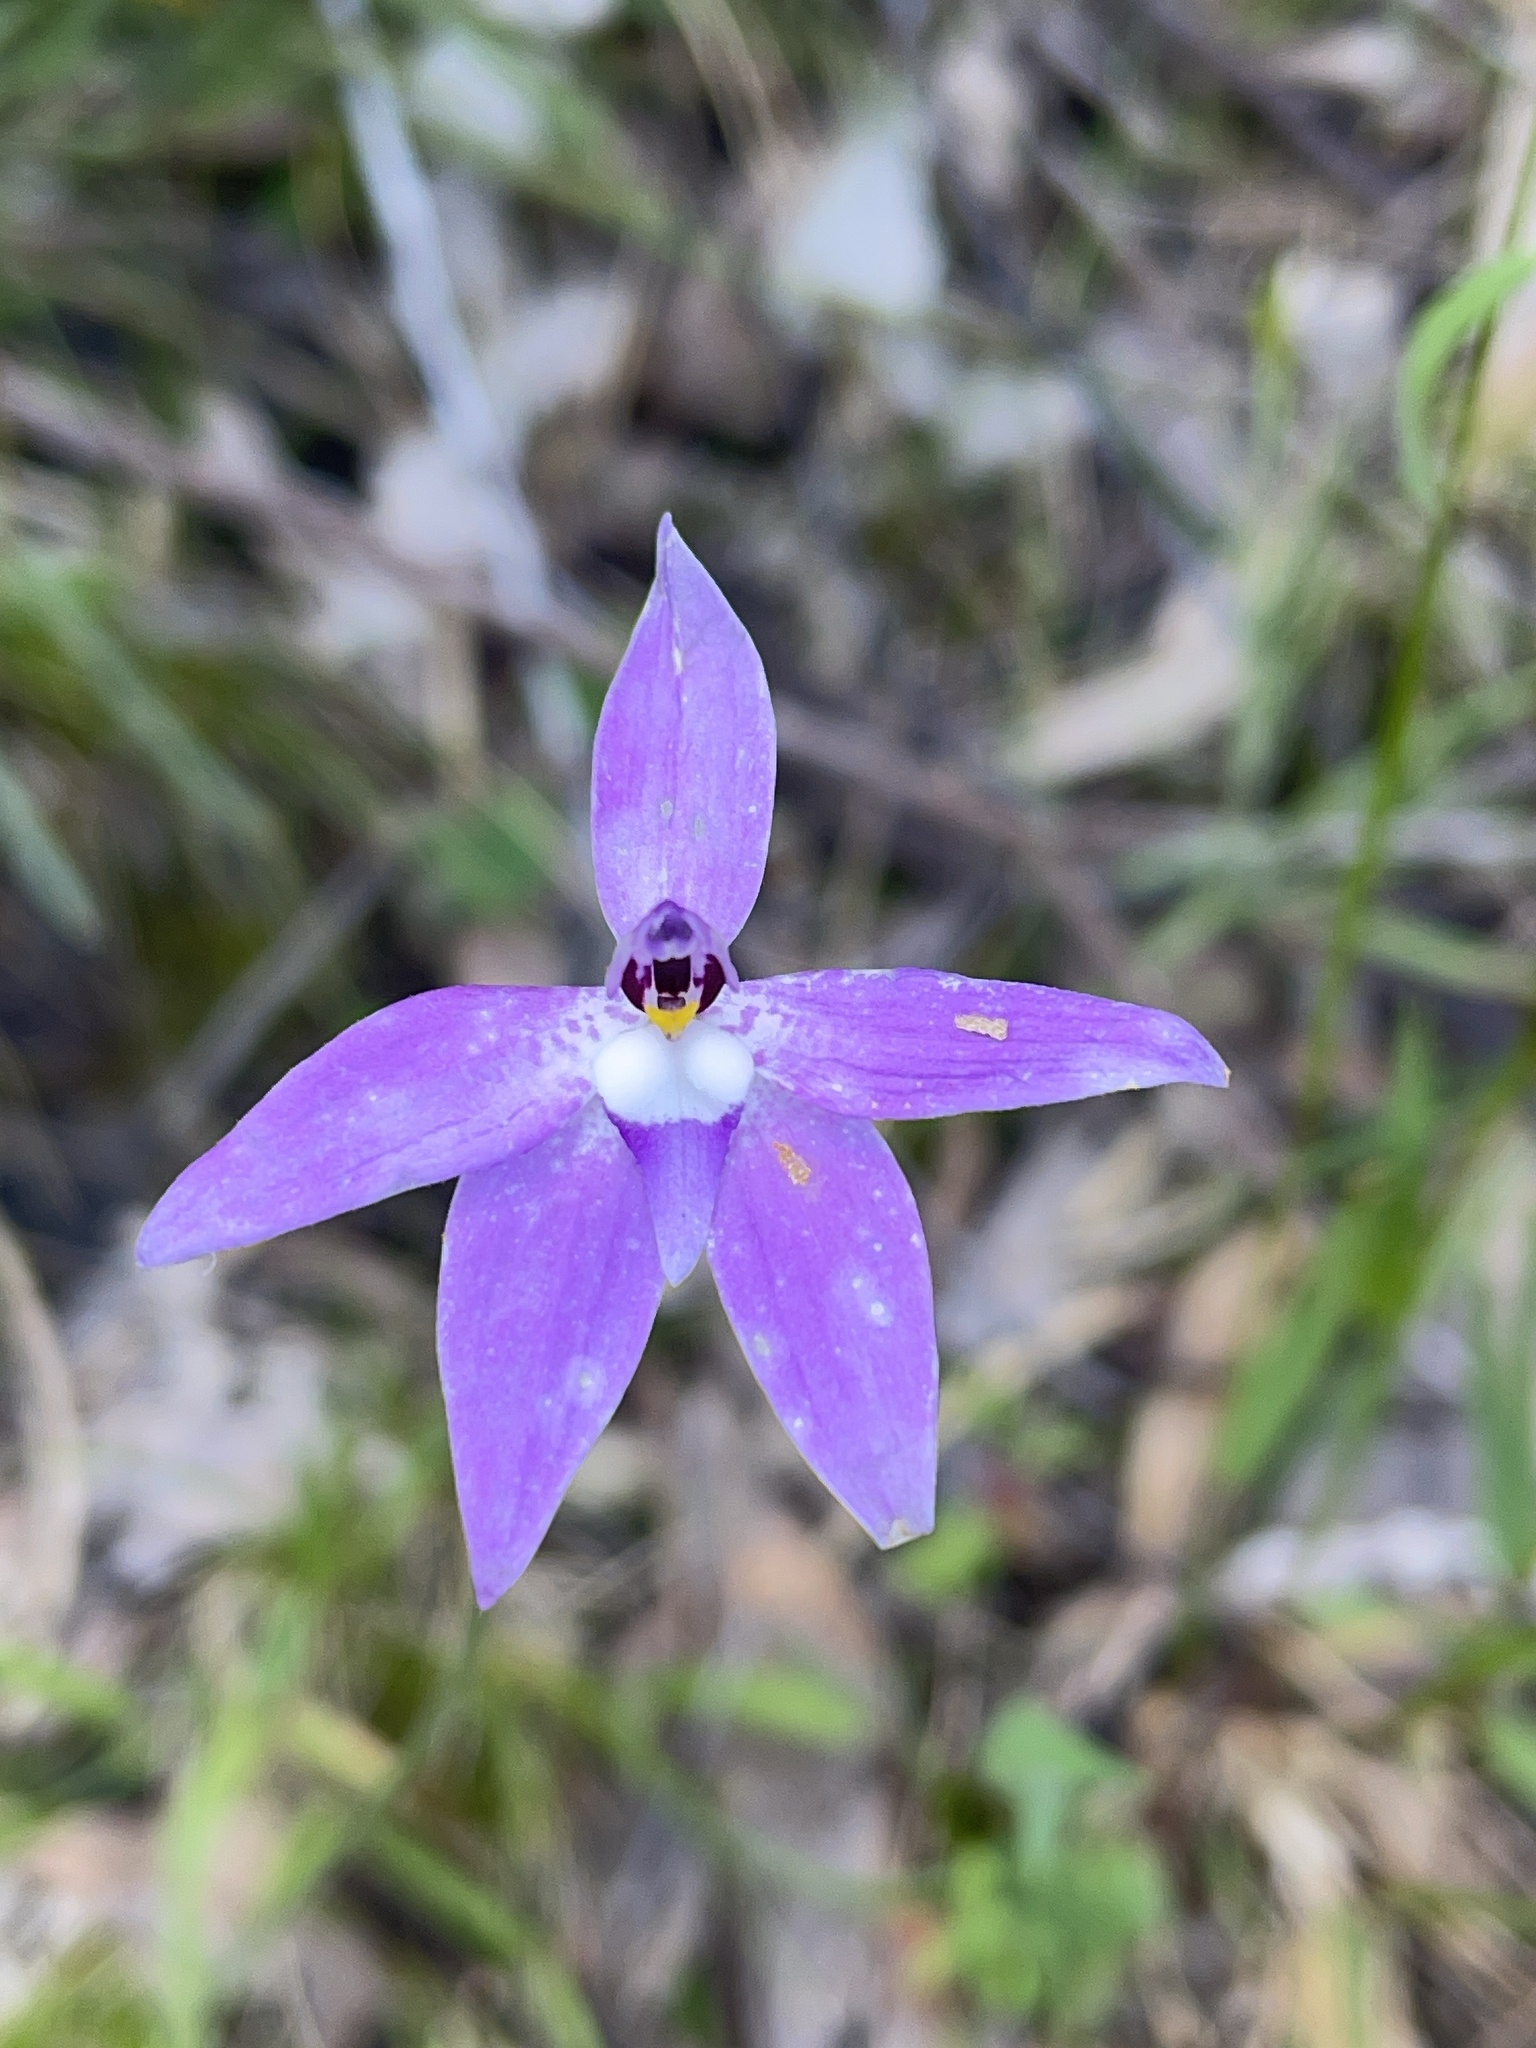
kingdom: Plantae
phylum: Tracheophyta
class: Liliopsida
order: Asparagales
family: Orchidaceae
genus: Caladenia
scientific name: Caladenia major
